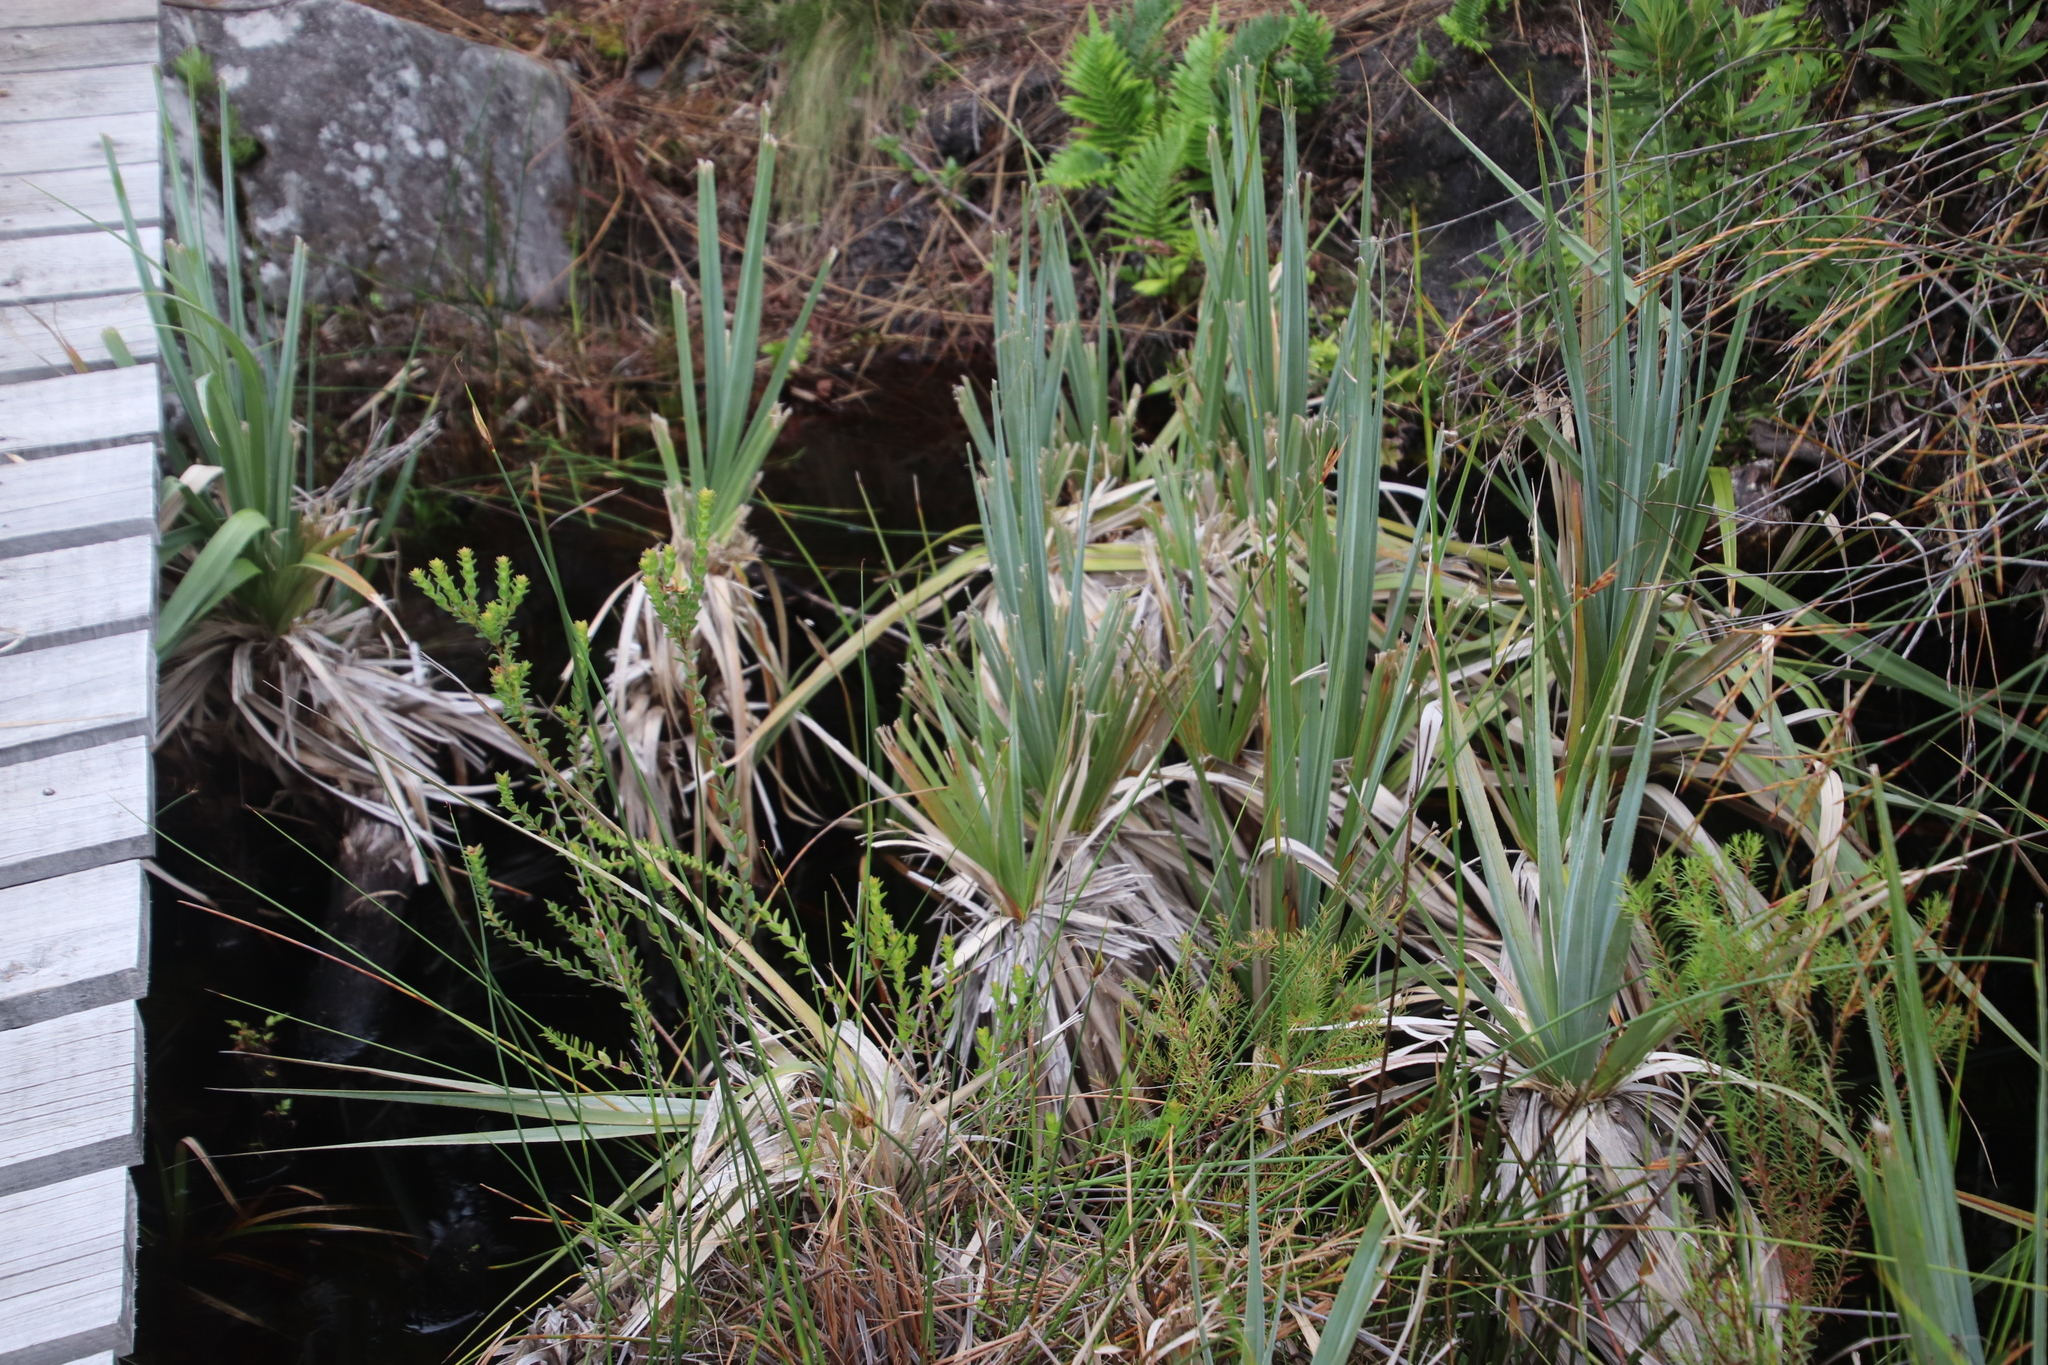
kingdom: Plantae
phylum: Tracheophyta
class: Liliopsida
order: Poales
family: Thurniaceae
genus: Prionium
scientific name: Prionium serratum
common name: Palmiet
